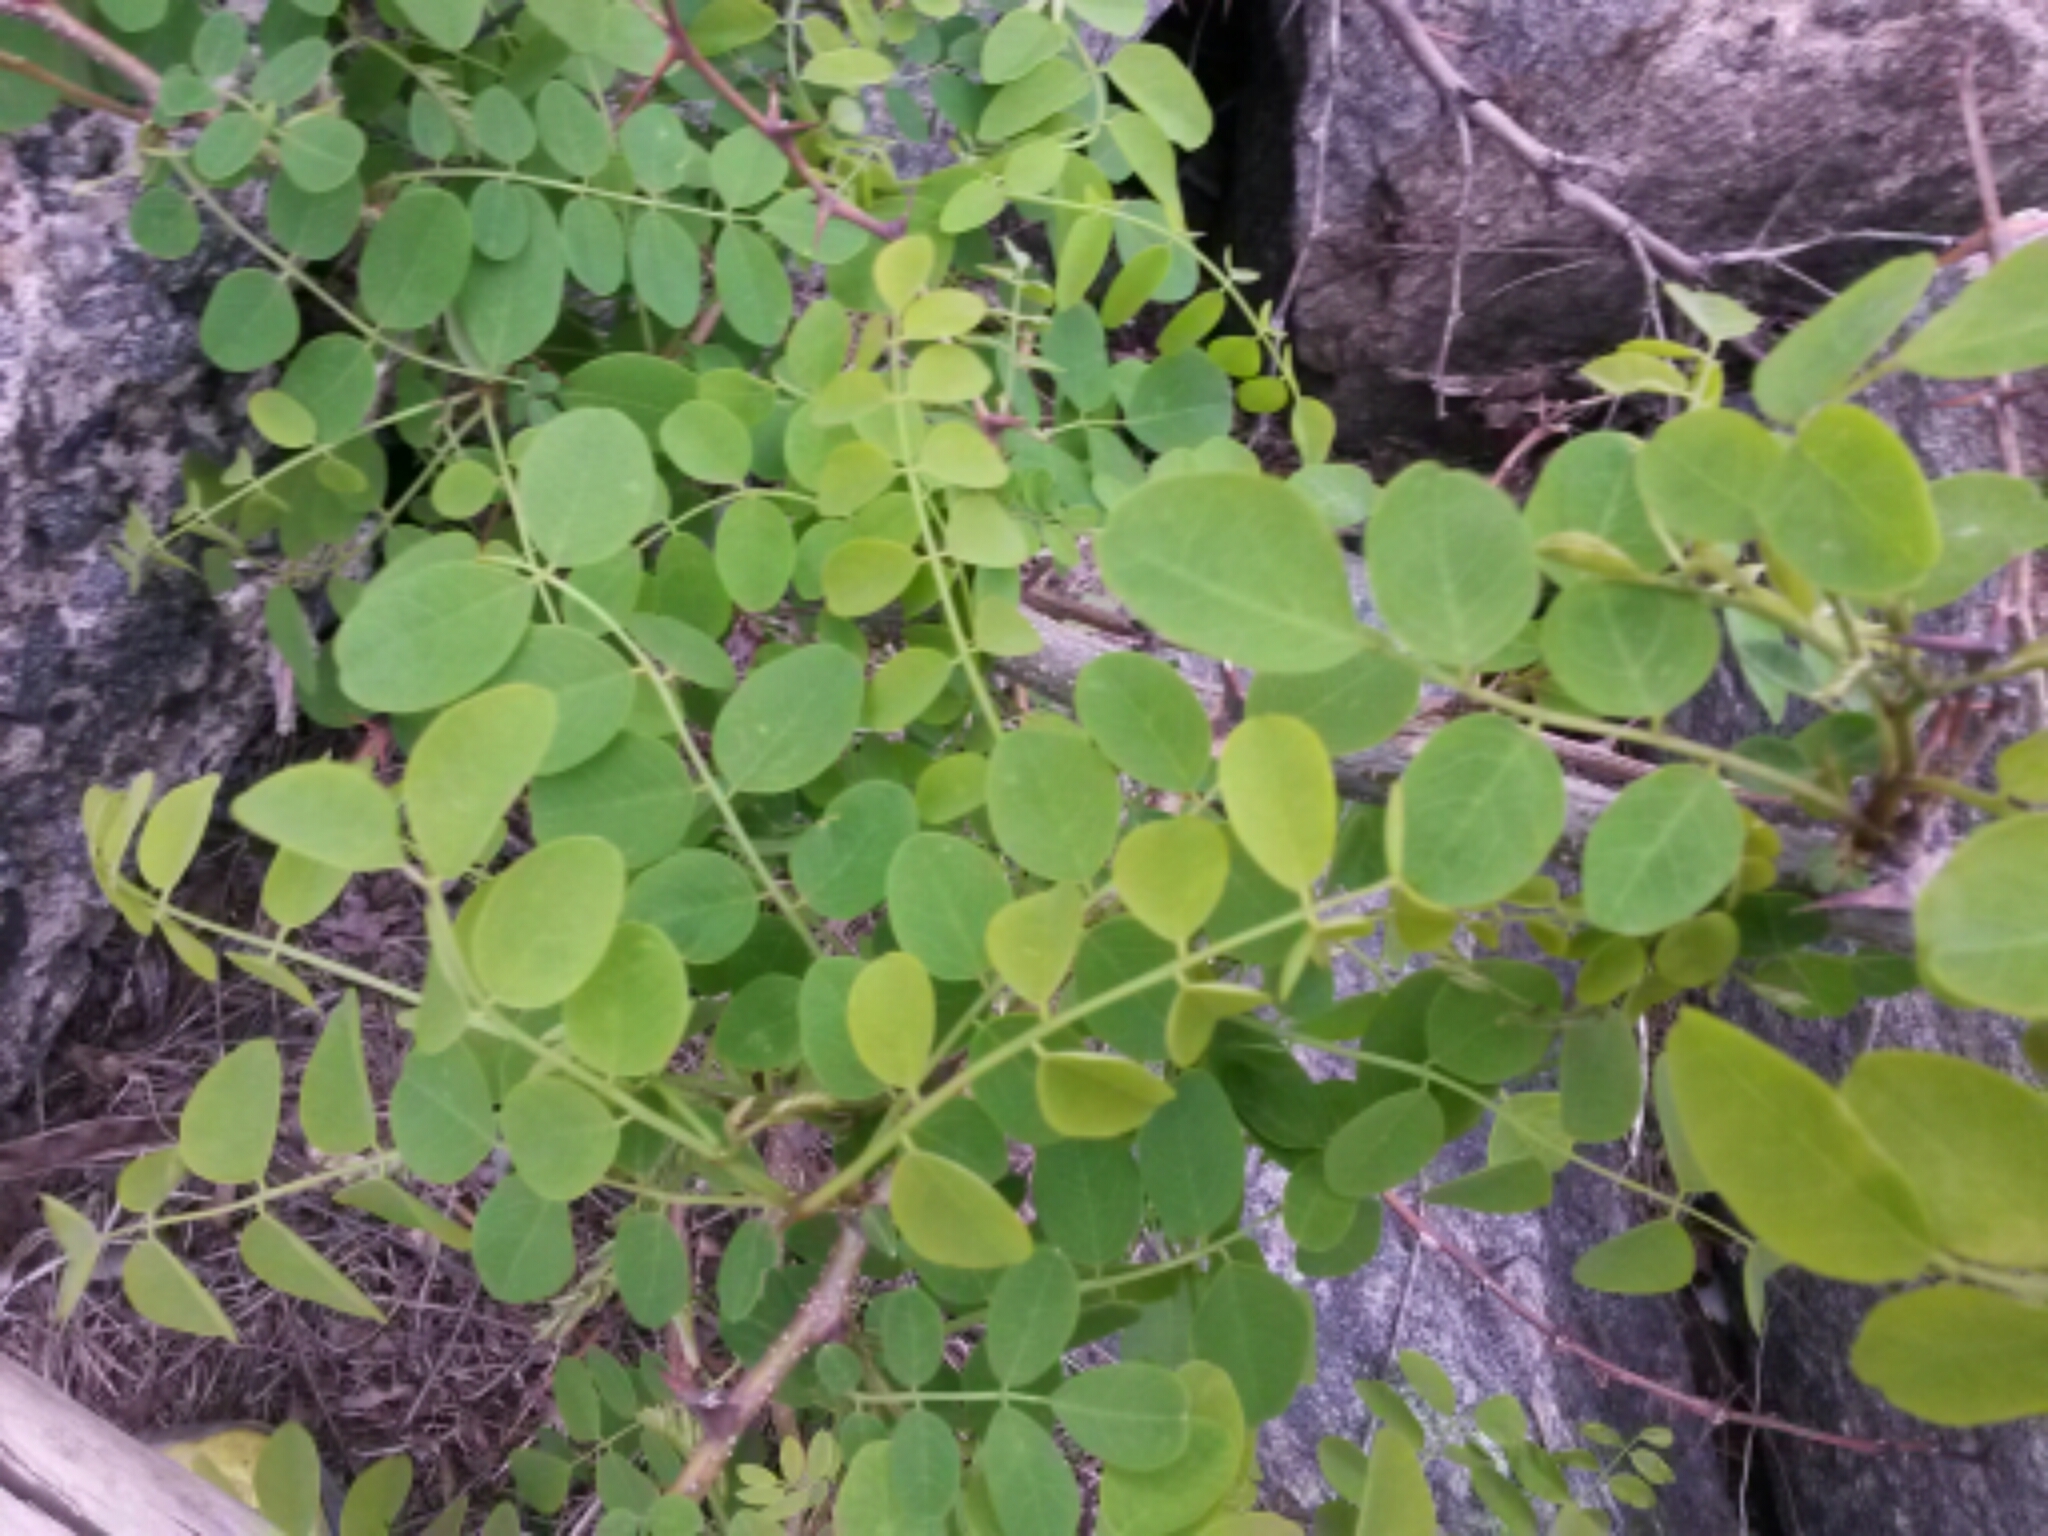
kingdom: Plantae
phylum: Tracheophyta
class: Magnoliopsida
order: Fabales
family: Fabaceae
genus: Robinia
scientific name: Robinia pseudoacacia
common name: Black locust
